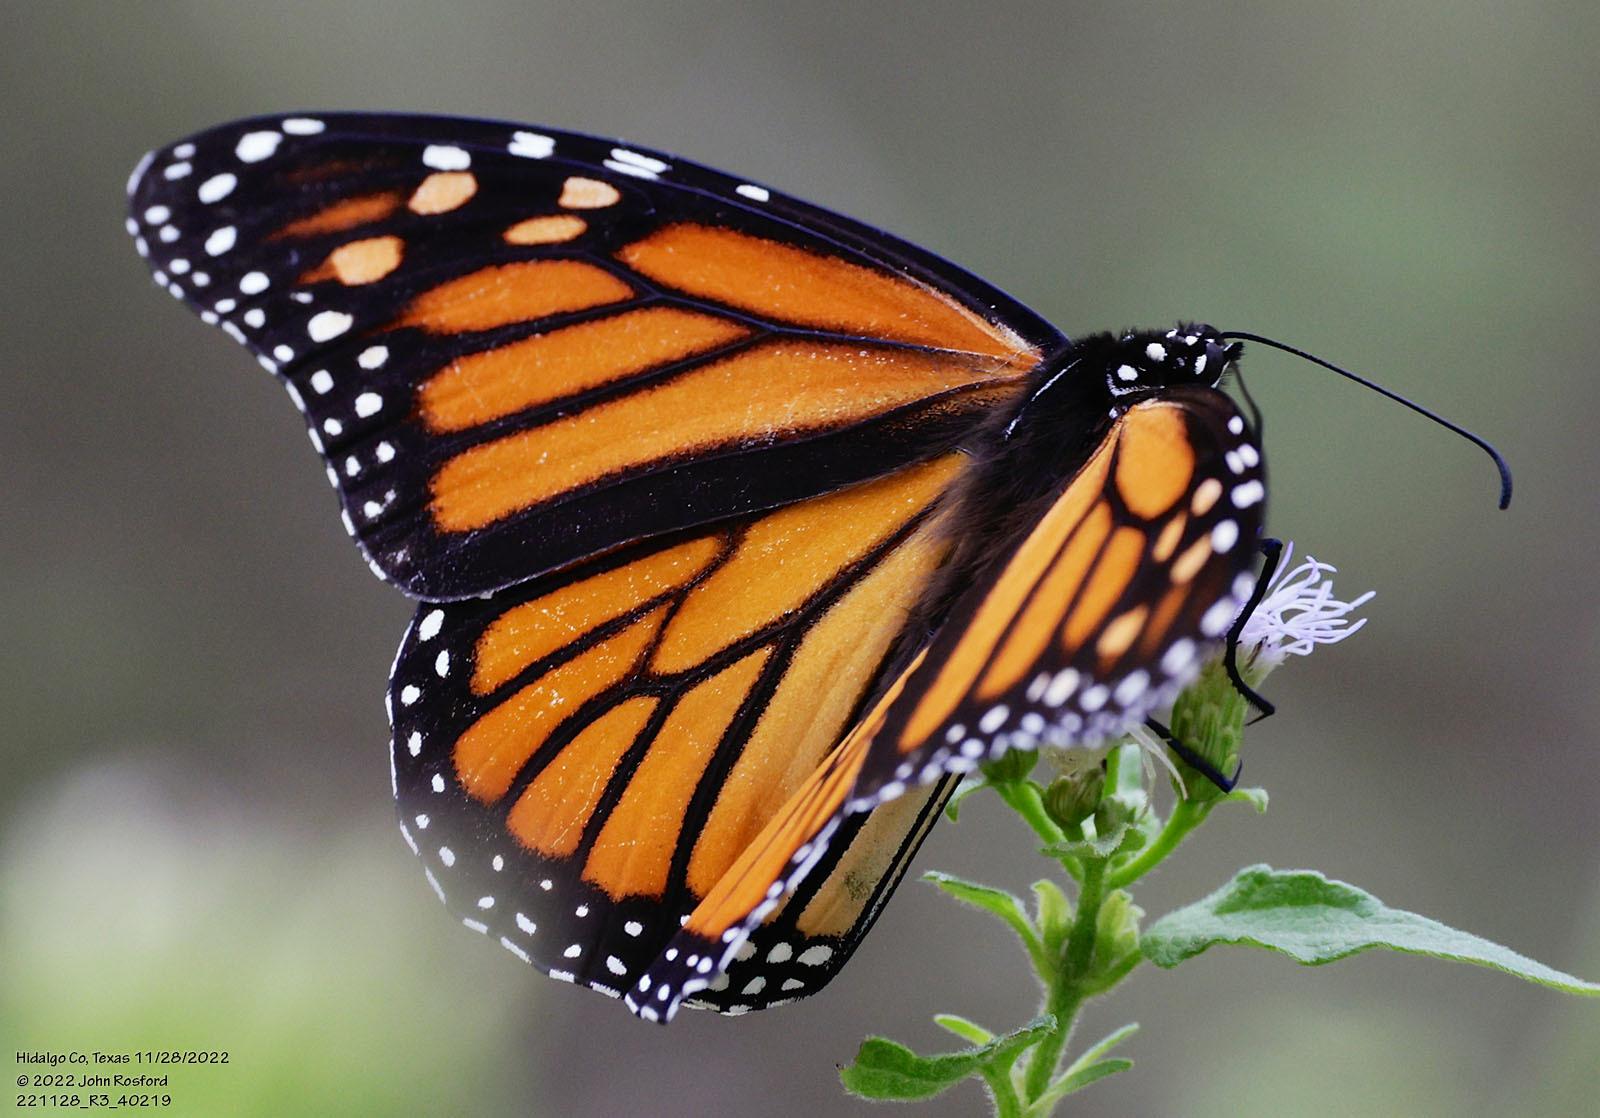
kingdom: Animalia
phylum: Arthropoda
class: Insecta
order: Lepidoptera
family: Nymphalidae
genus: Danaus
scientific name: Danaus plexippus
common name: Monarch
